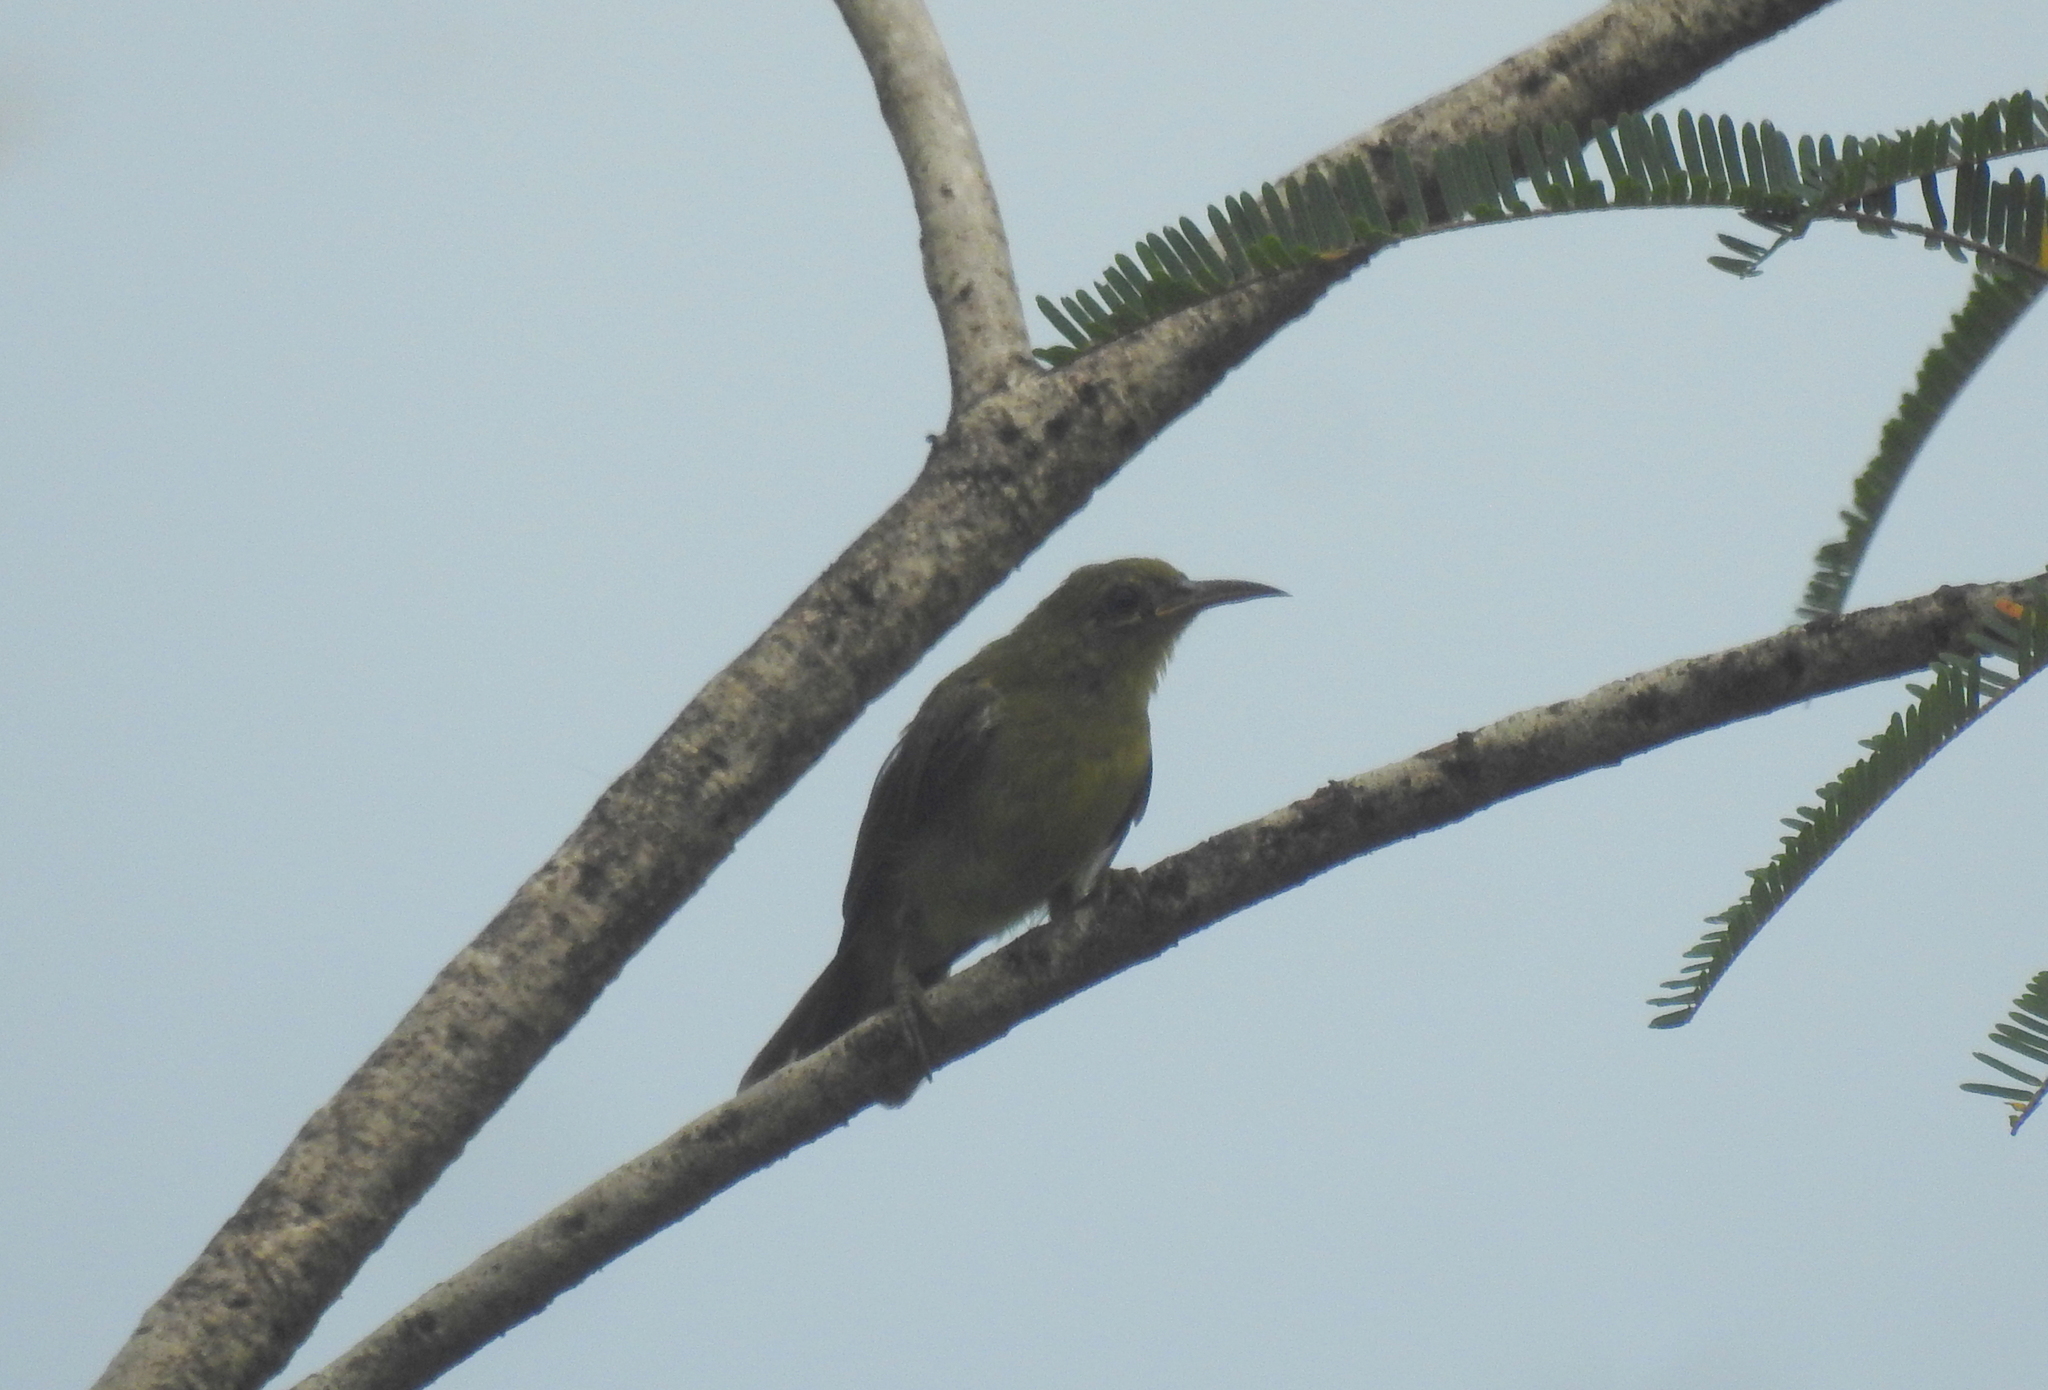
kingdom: Animalia
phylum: Chordata
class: Aves
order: Passeriformes
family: Nectariniidae
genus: Anthreptes
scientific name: Anthreptes malacensis
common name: Brown-throated sunbird
